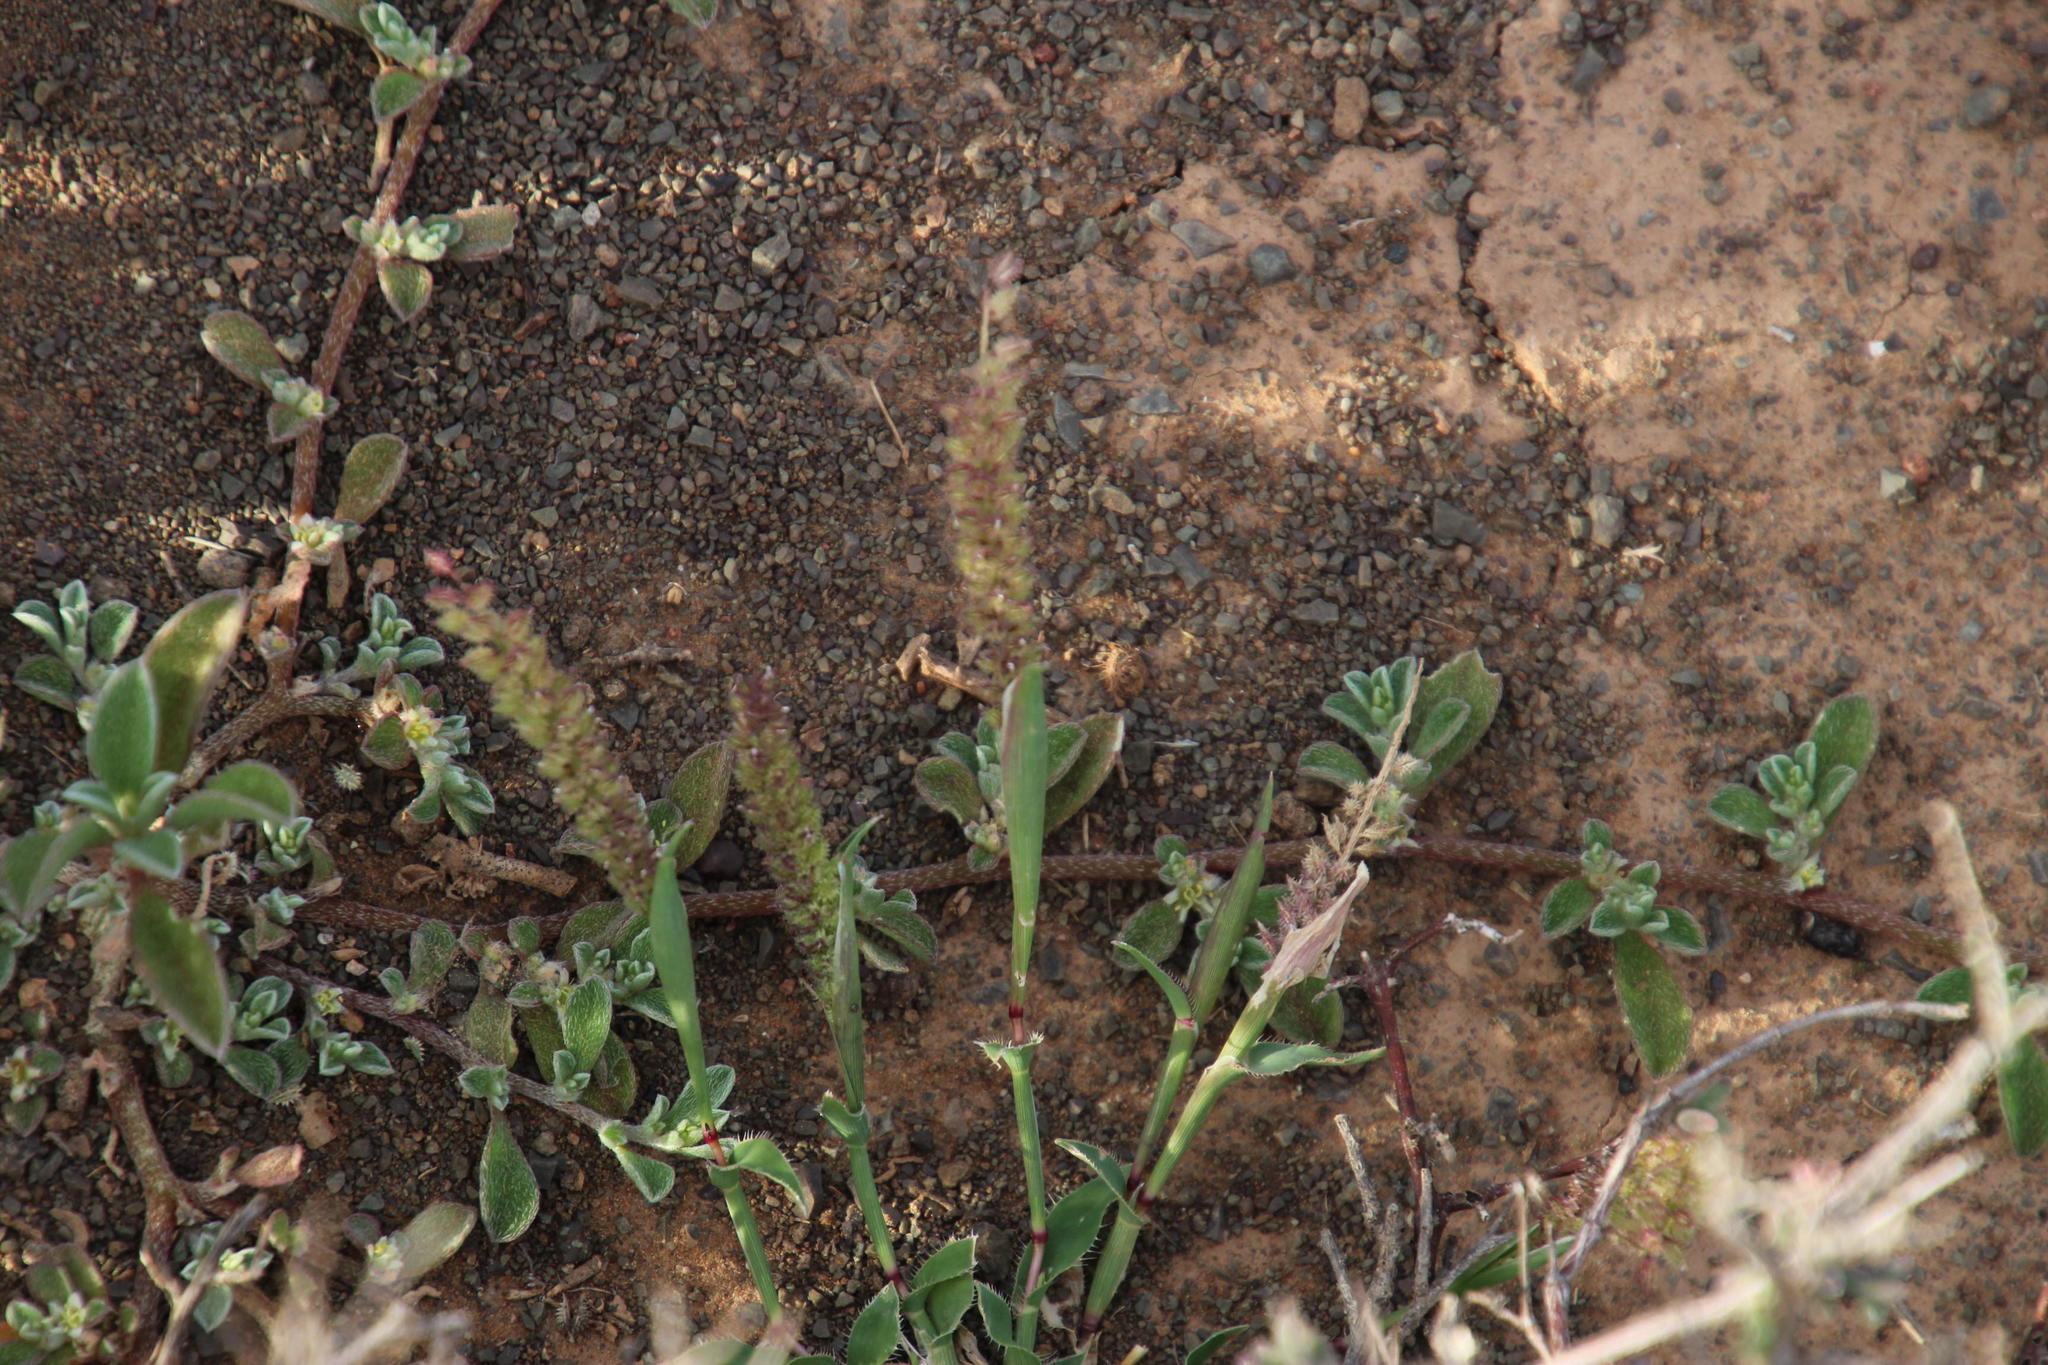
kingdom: Plantae
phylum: Tracheophyta
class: Liliopsida
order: Poales
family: Poaceae
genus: Tragus
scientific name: Tragus berteronianus
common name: African bur-grass
